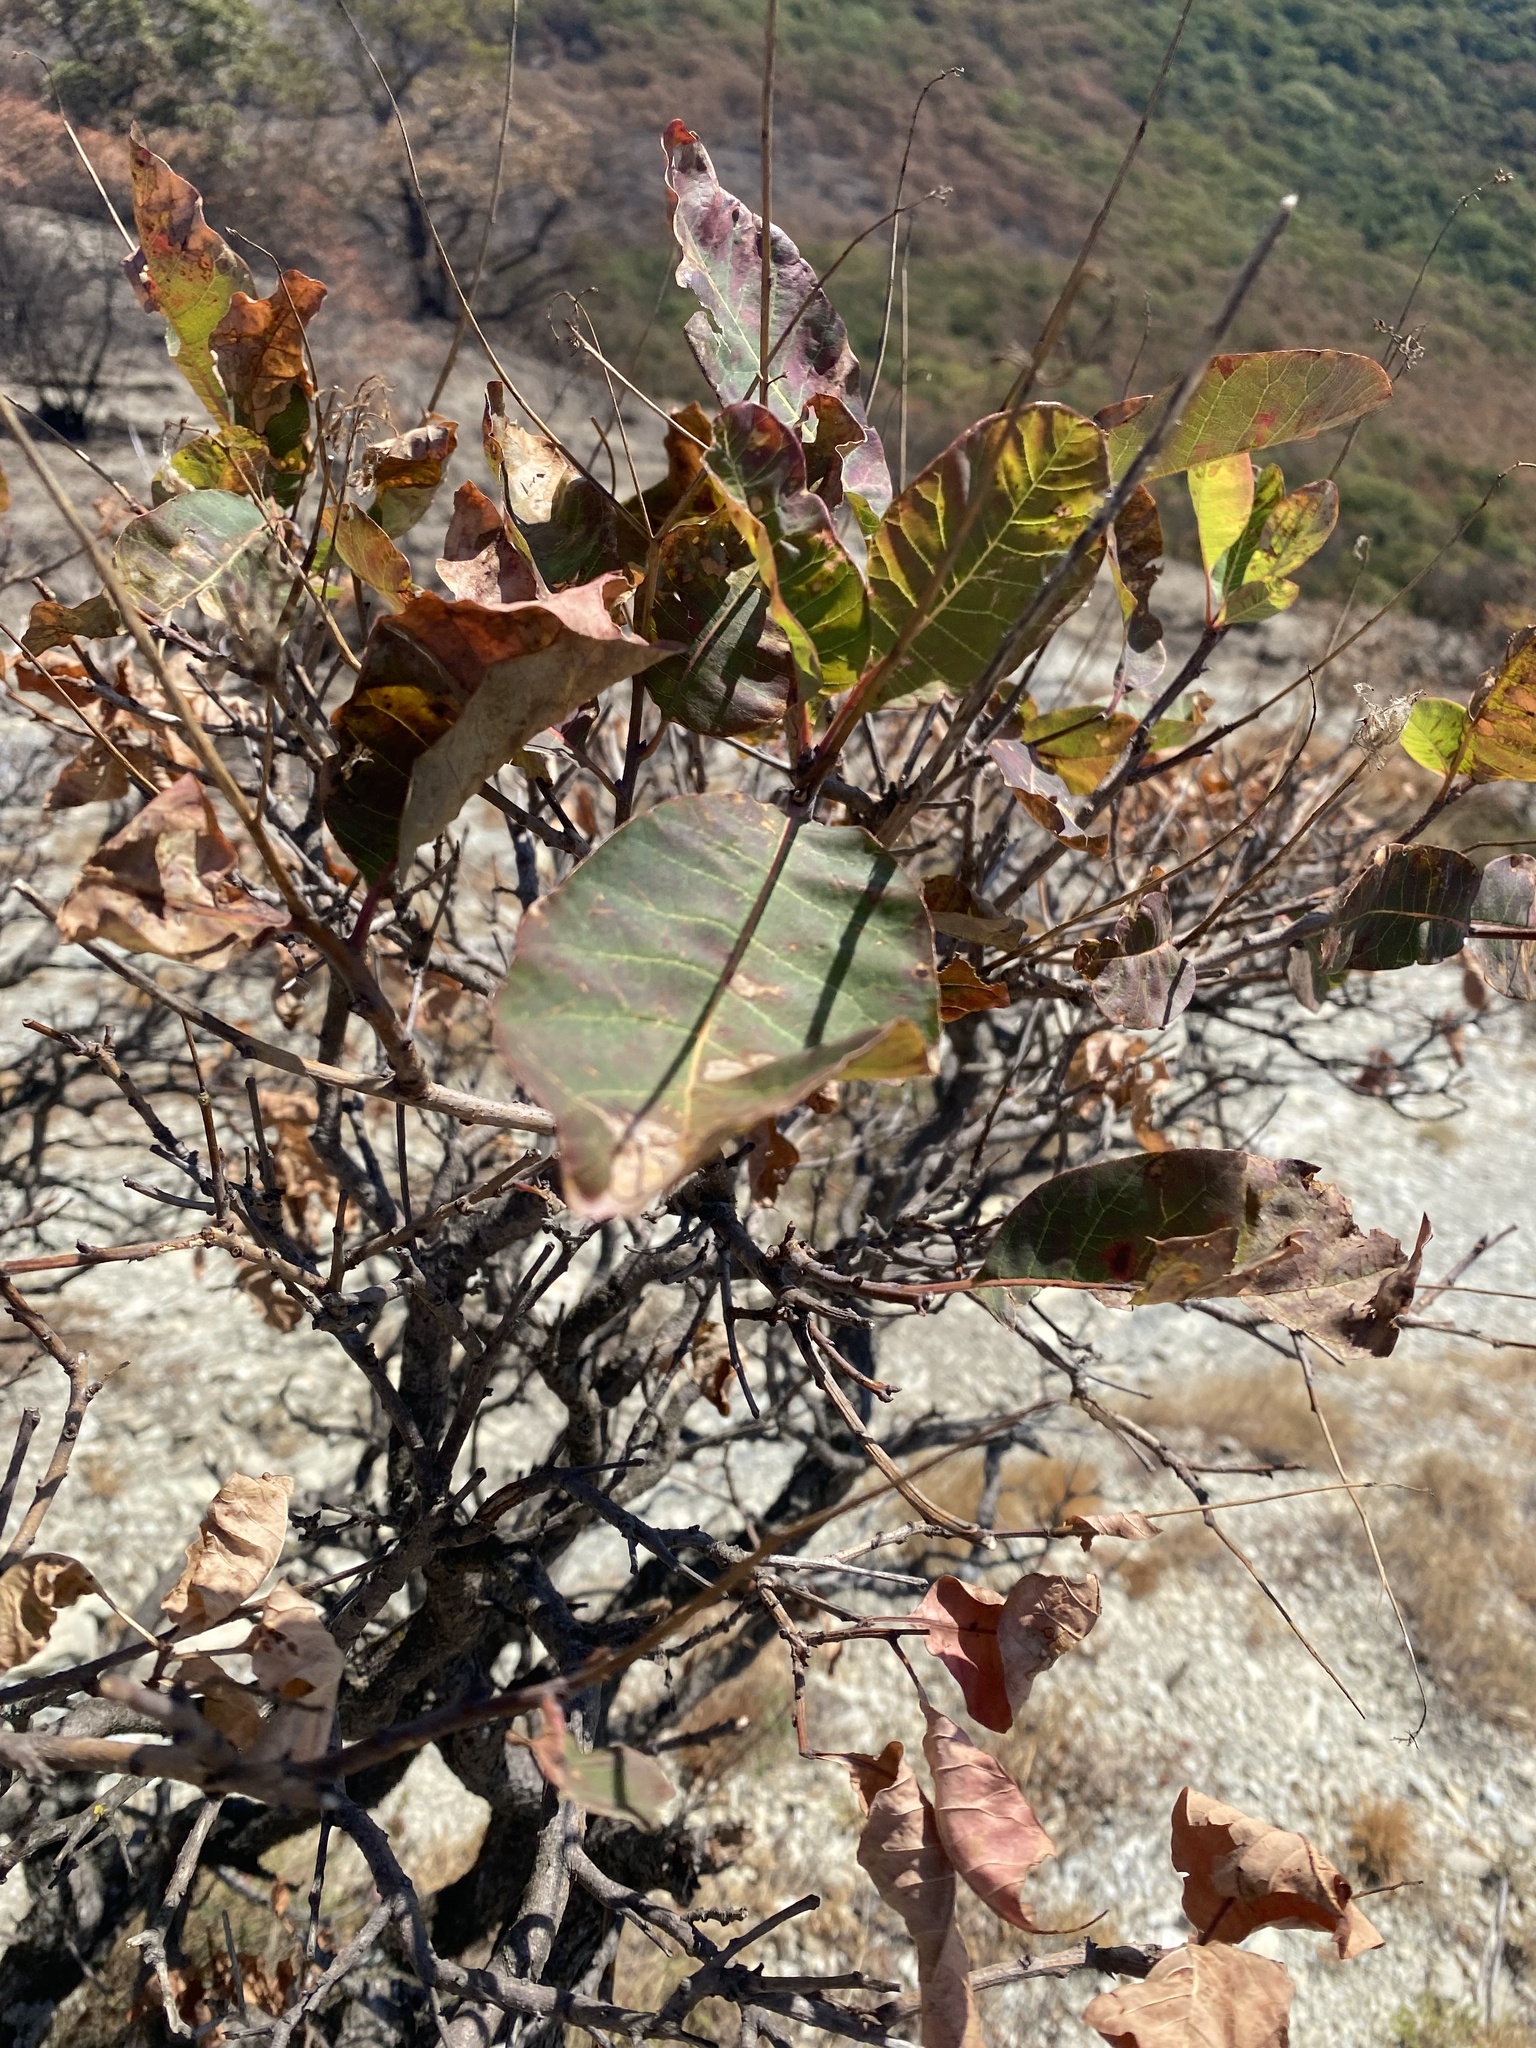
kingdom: Plantae
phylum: Tracheophyta
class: Magnoliopsida
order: Sapindales
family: Anacardiaceae
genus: Cotinus
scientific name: Cotinus coggygria
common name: Smoke-tree
